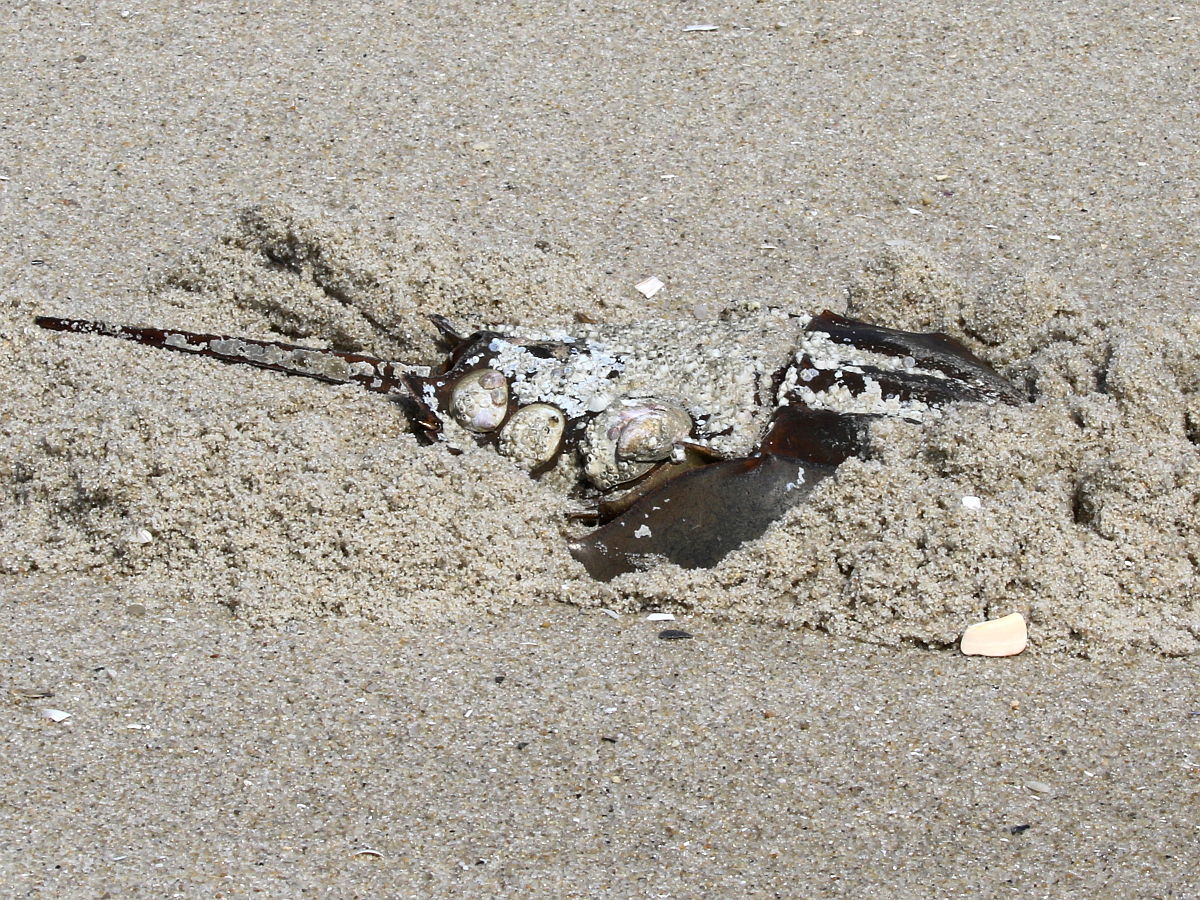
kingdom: Animalia
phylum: Arthropoda
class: Merostomata
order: Xiphosurida
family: Limulidae
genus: Limulus
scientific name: Limulus polyphemus
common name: Horseshoe crab
